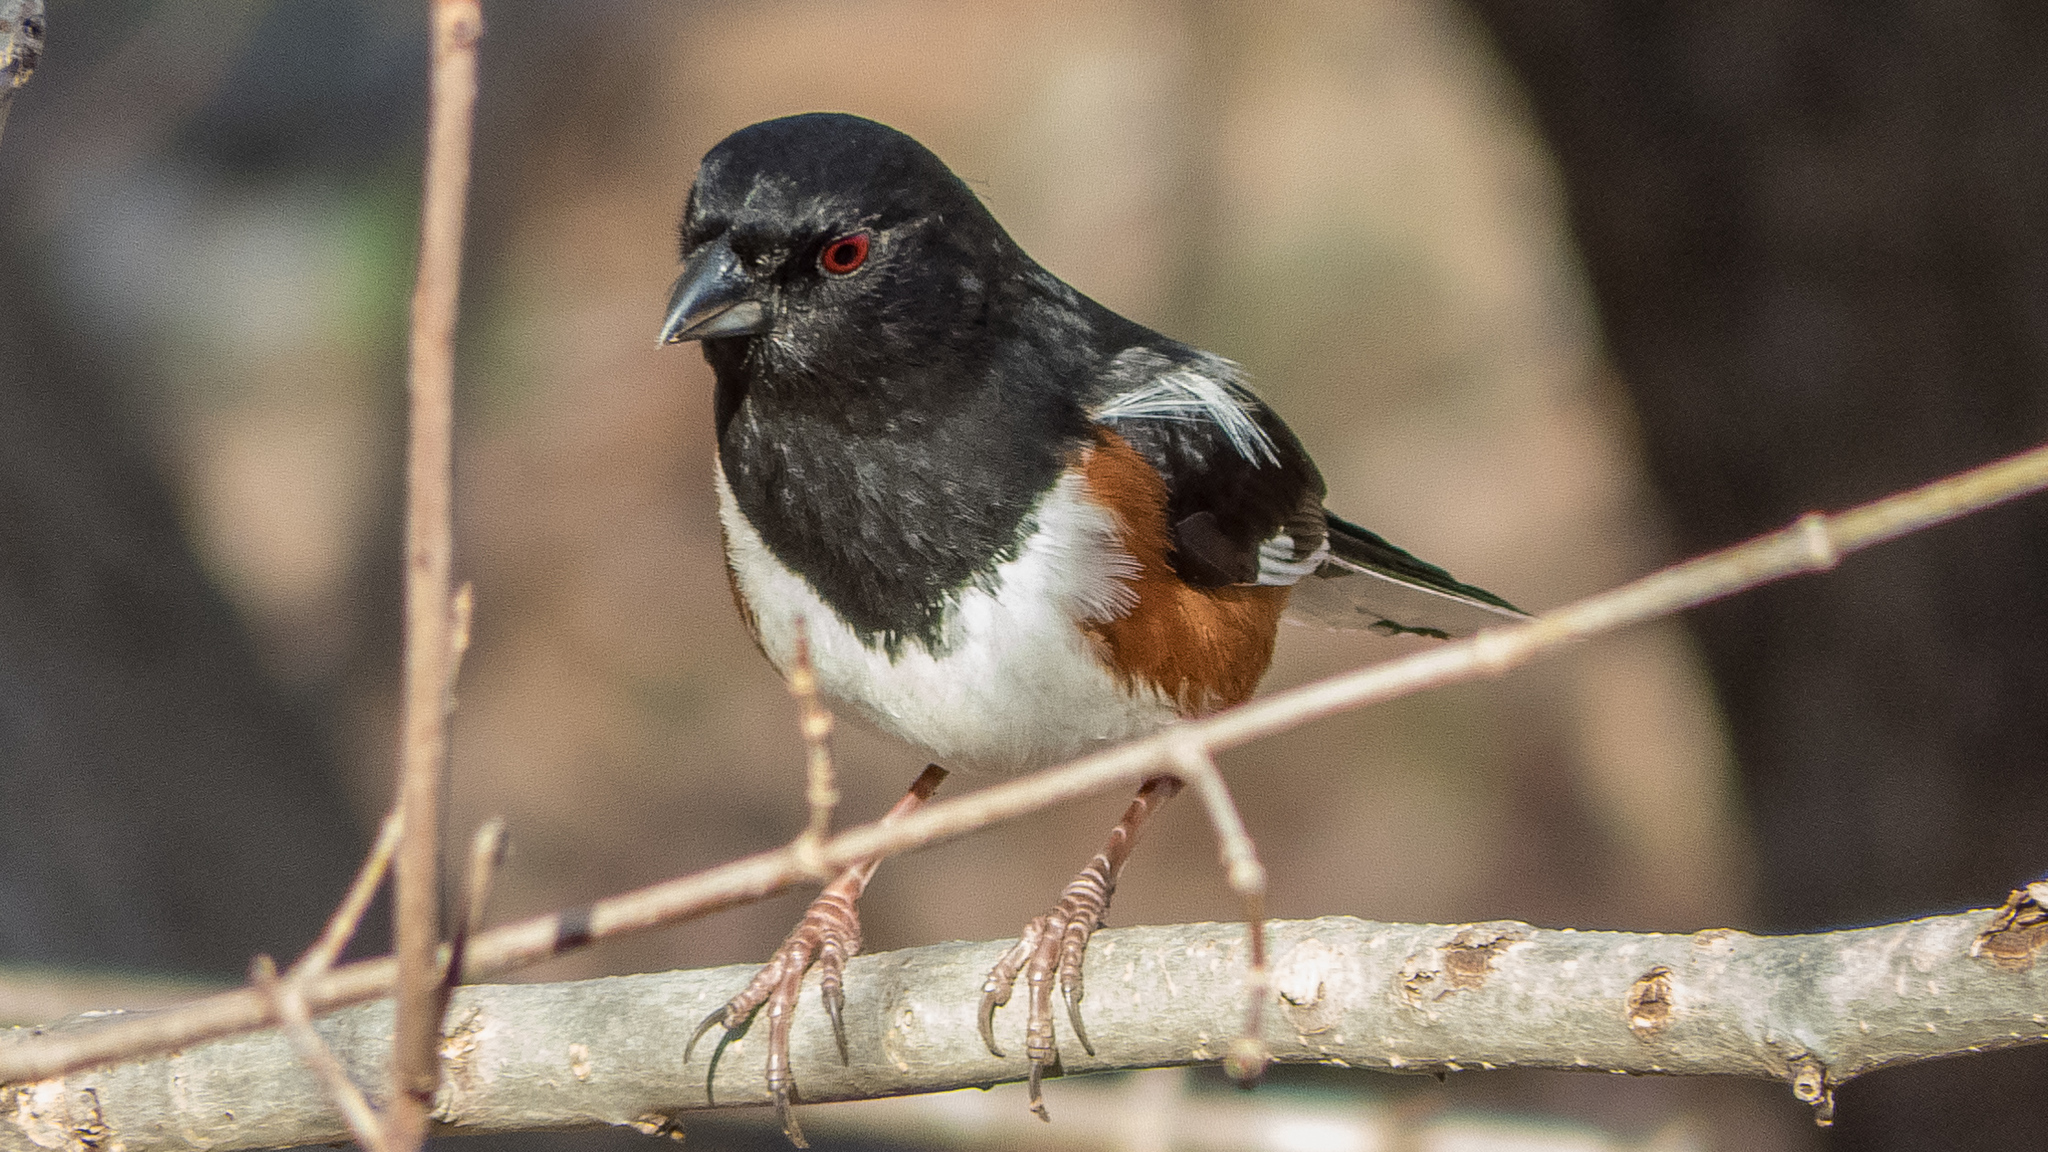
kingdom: Animalia
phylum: Chordata
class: Aves
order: Passeriformes
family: Passerellidae
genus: Pipilo
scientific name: Pipilo erythrophthalmus
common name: Eastern towhee
